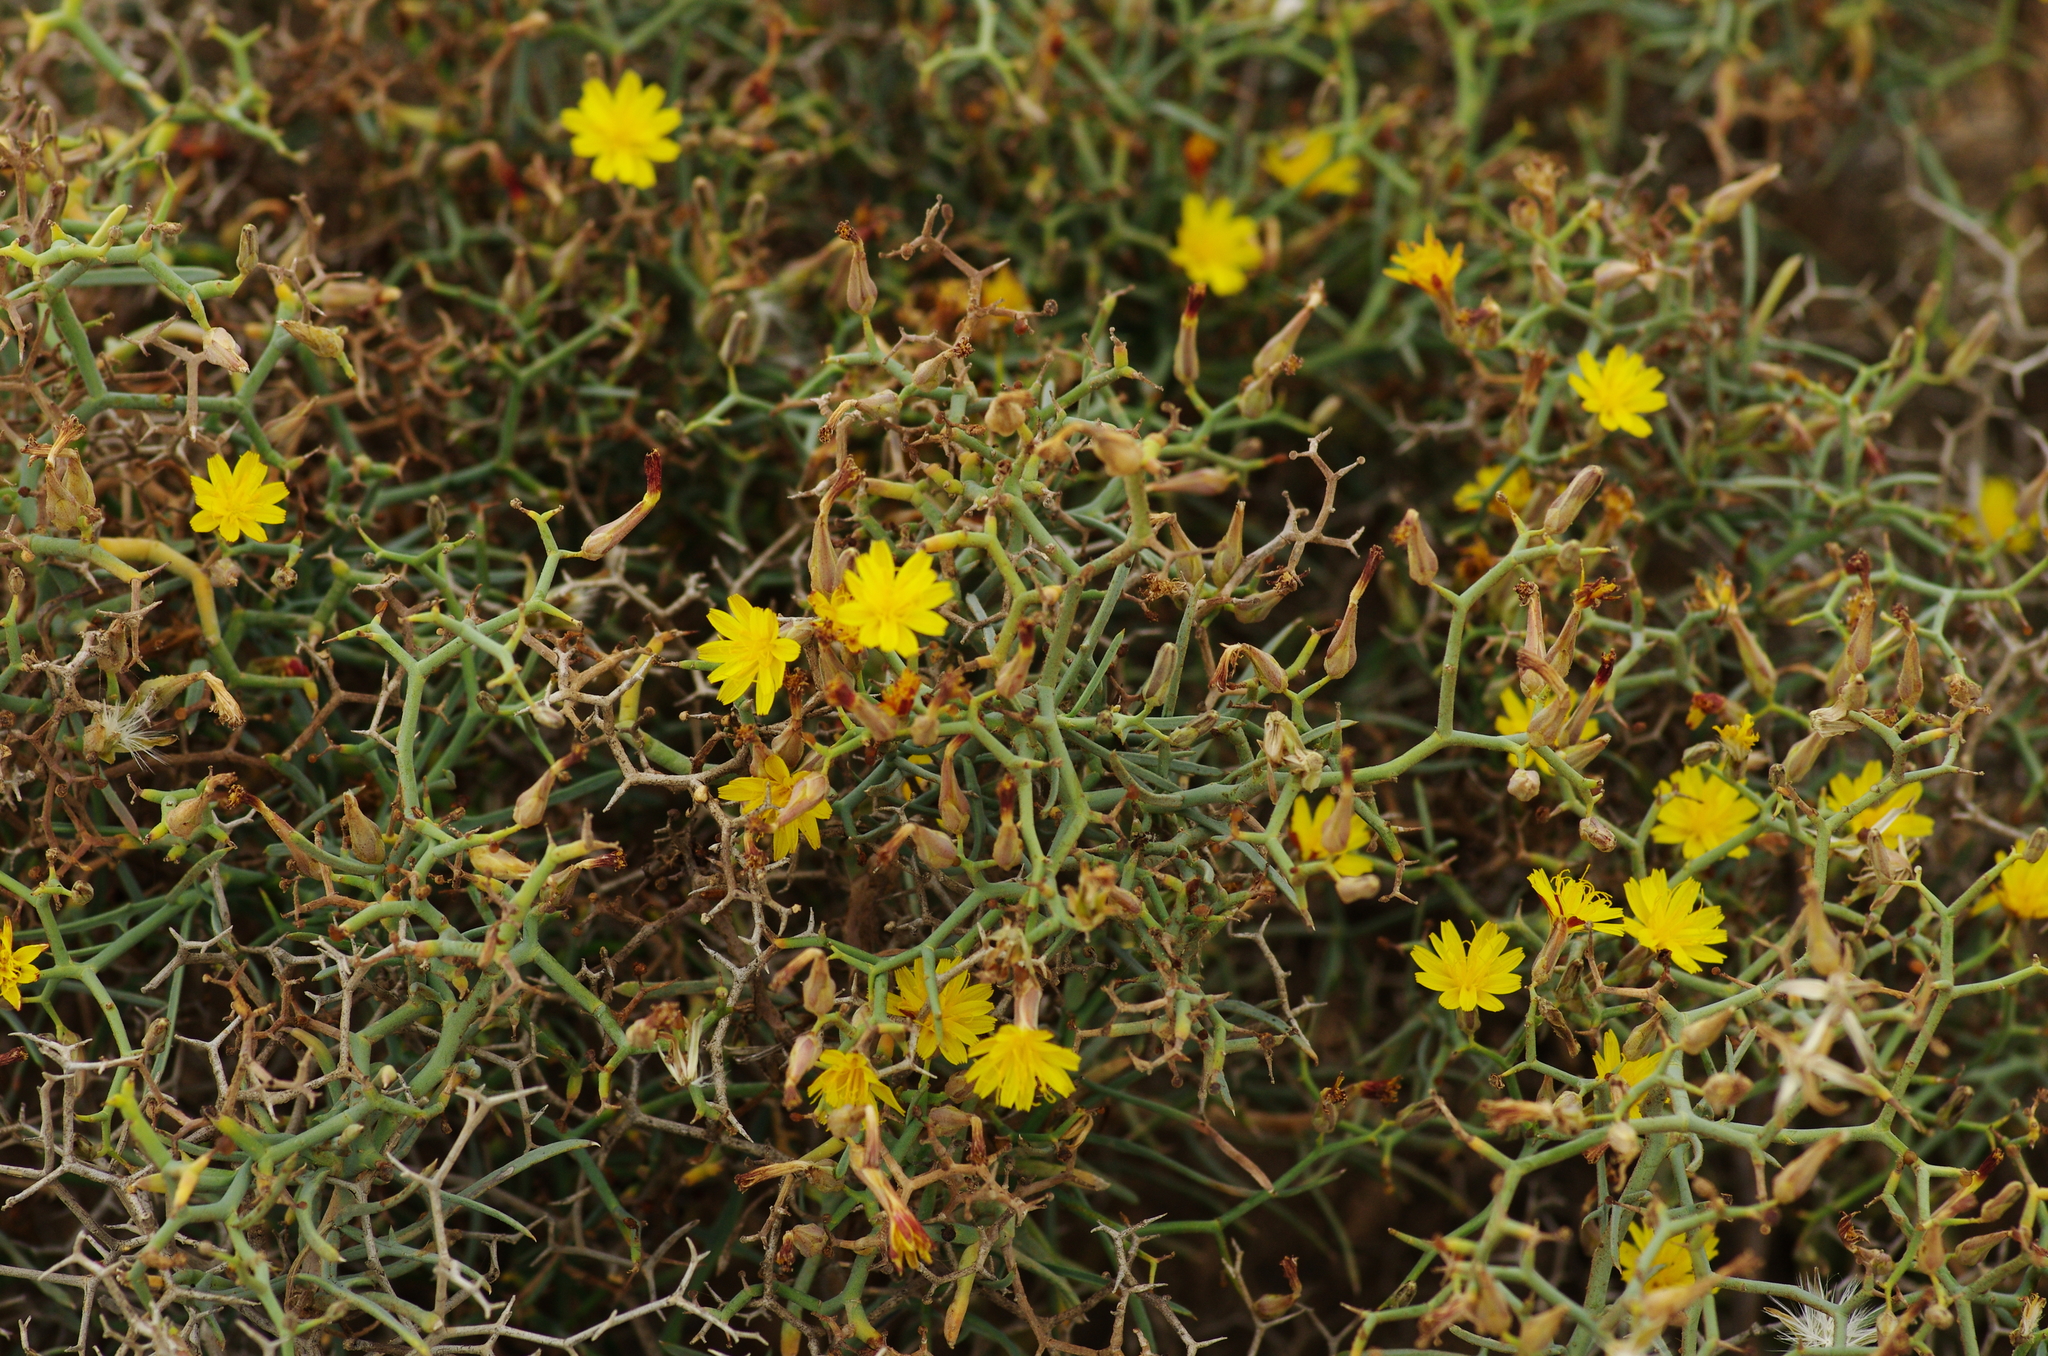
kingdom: Plantae
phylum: Tracheophyta
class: Magnoliopsida
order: Asterales
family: Asteraceae
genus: Launaea
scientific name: Launaea arborescens
